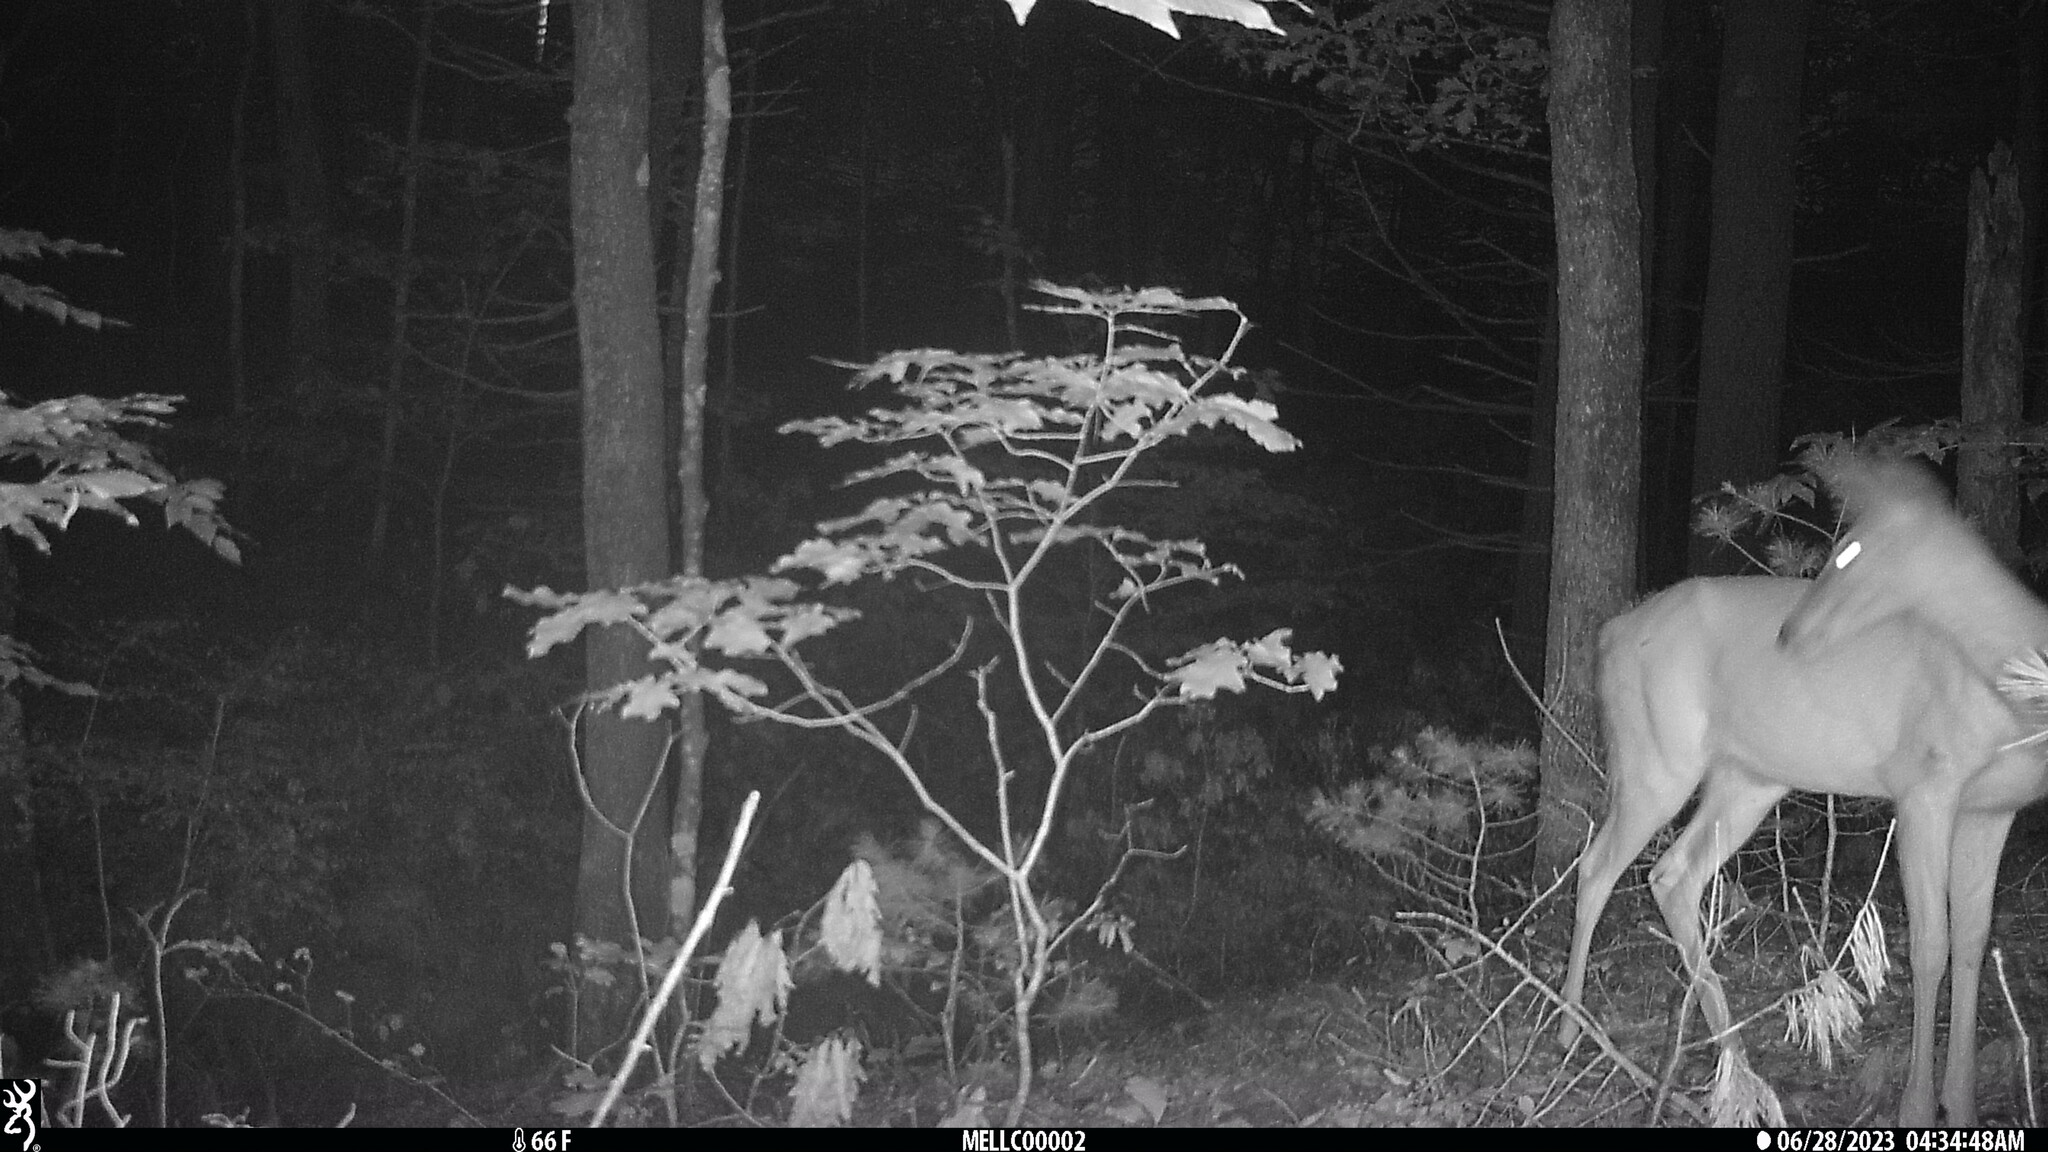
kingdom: Animalia
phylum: Chordata
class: Mammalia
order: Artiodactyla
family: Cervidae
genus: Odocoileus
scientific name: Odocoileus virginianus
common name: White-tailed deer
